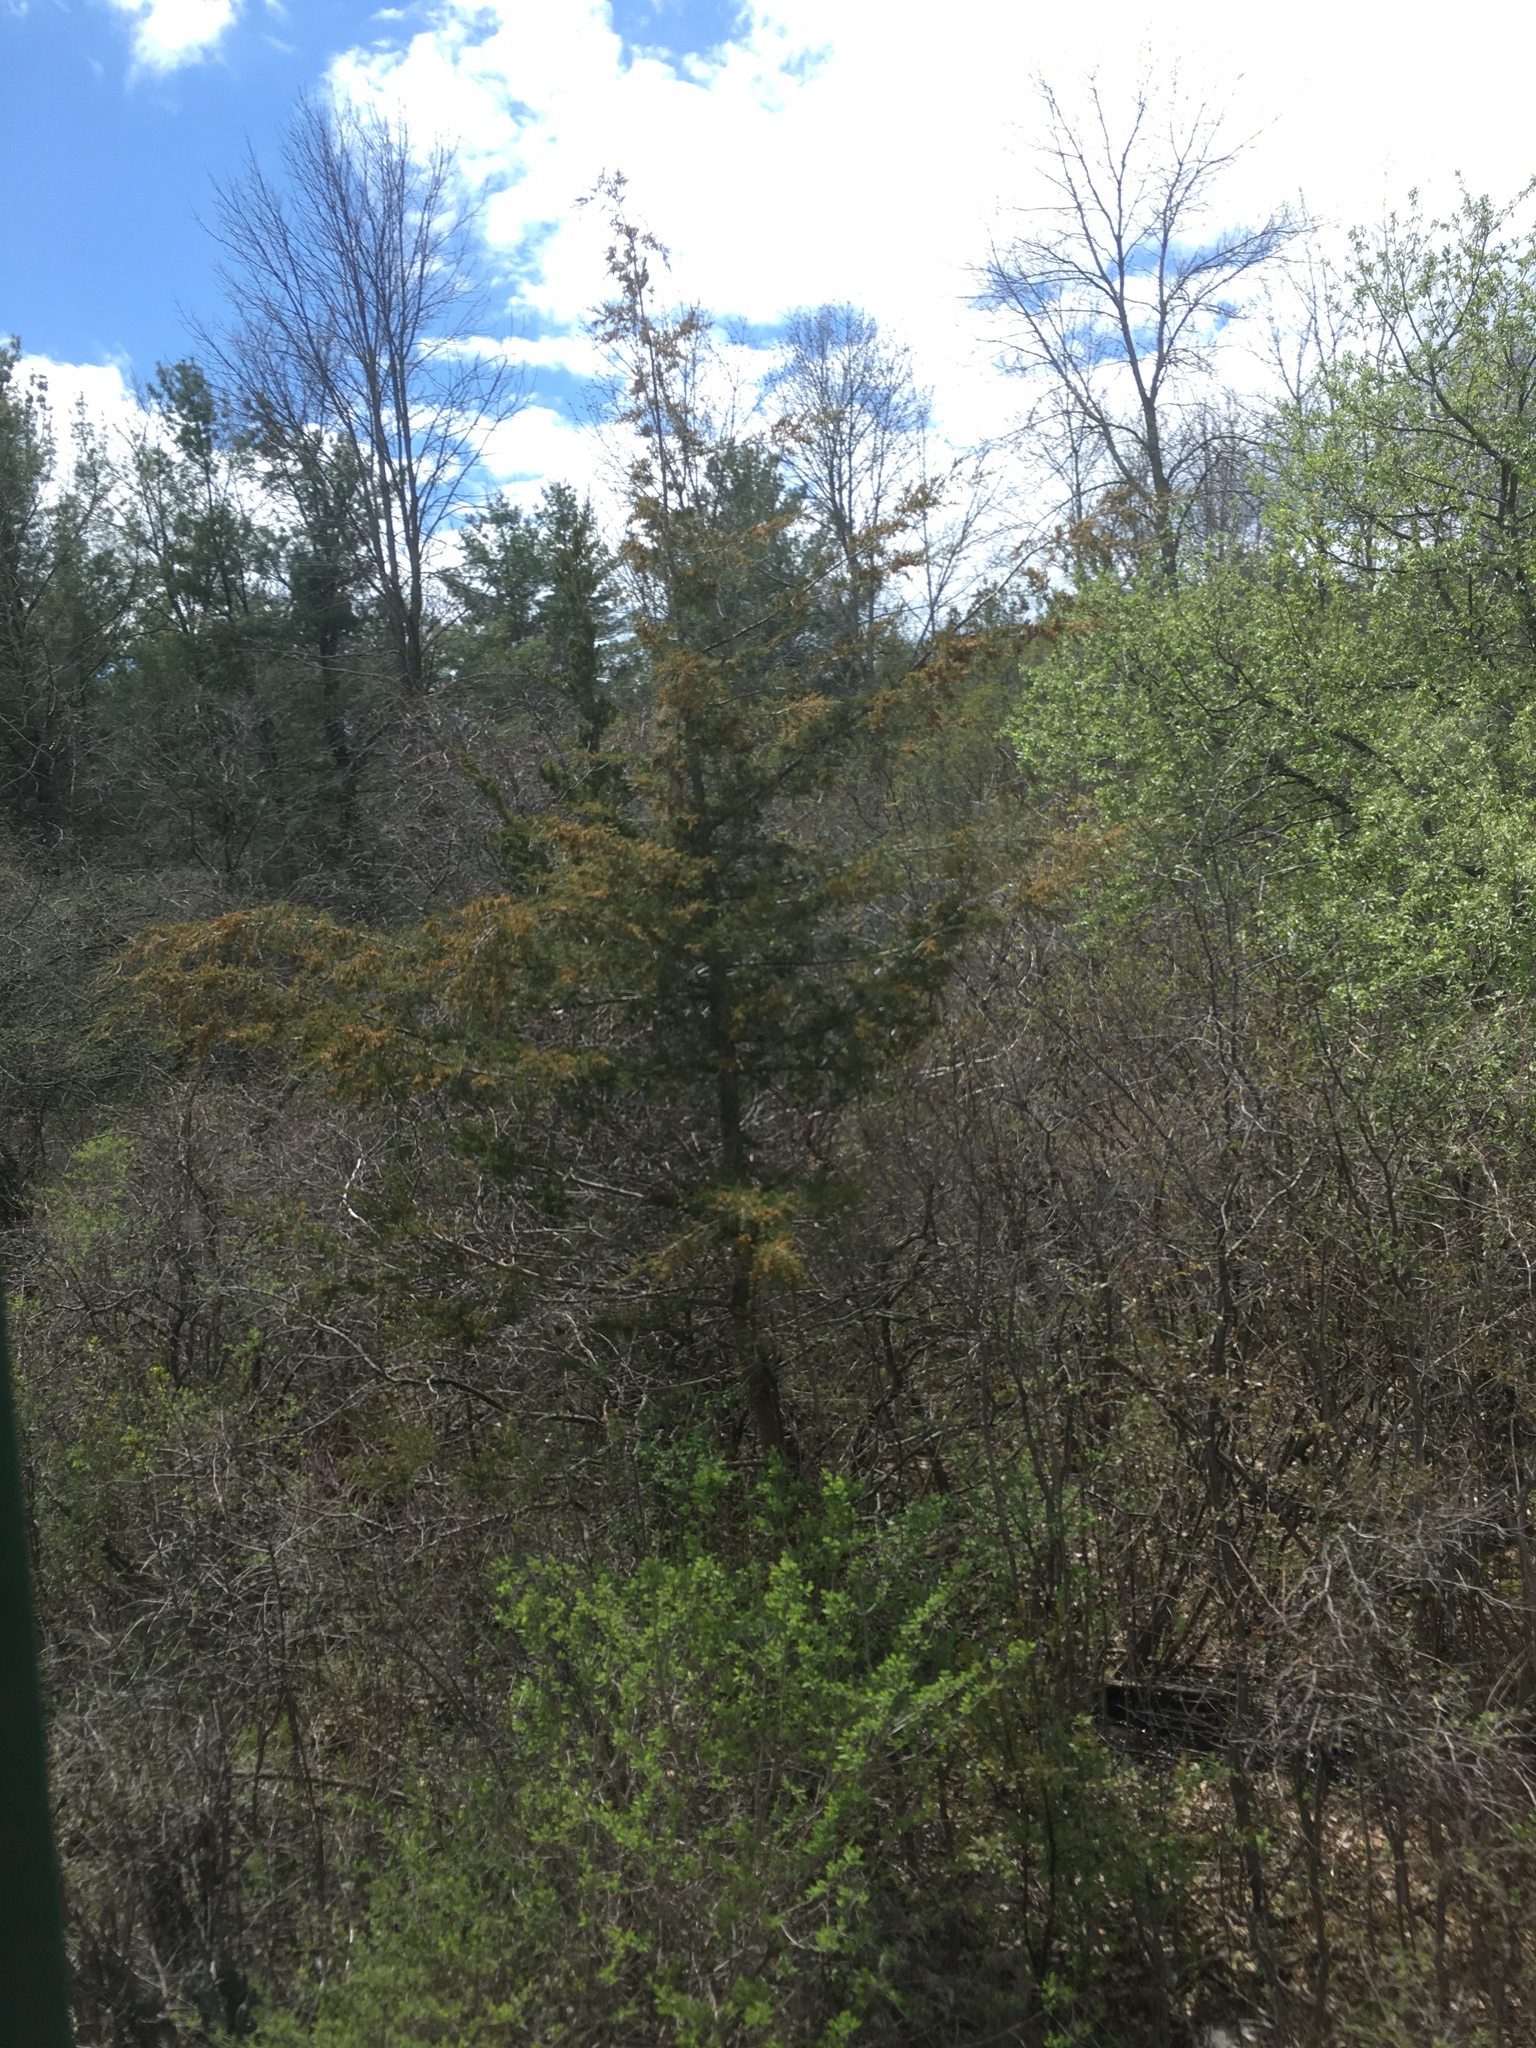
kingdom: Plantae
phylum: Tracheophyta
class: Pinopsida
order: Pinales
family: Cupressaceae
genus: Juniperus
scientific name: Juniperus virginiana
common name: Red juniper
